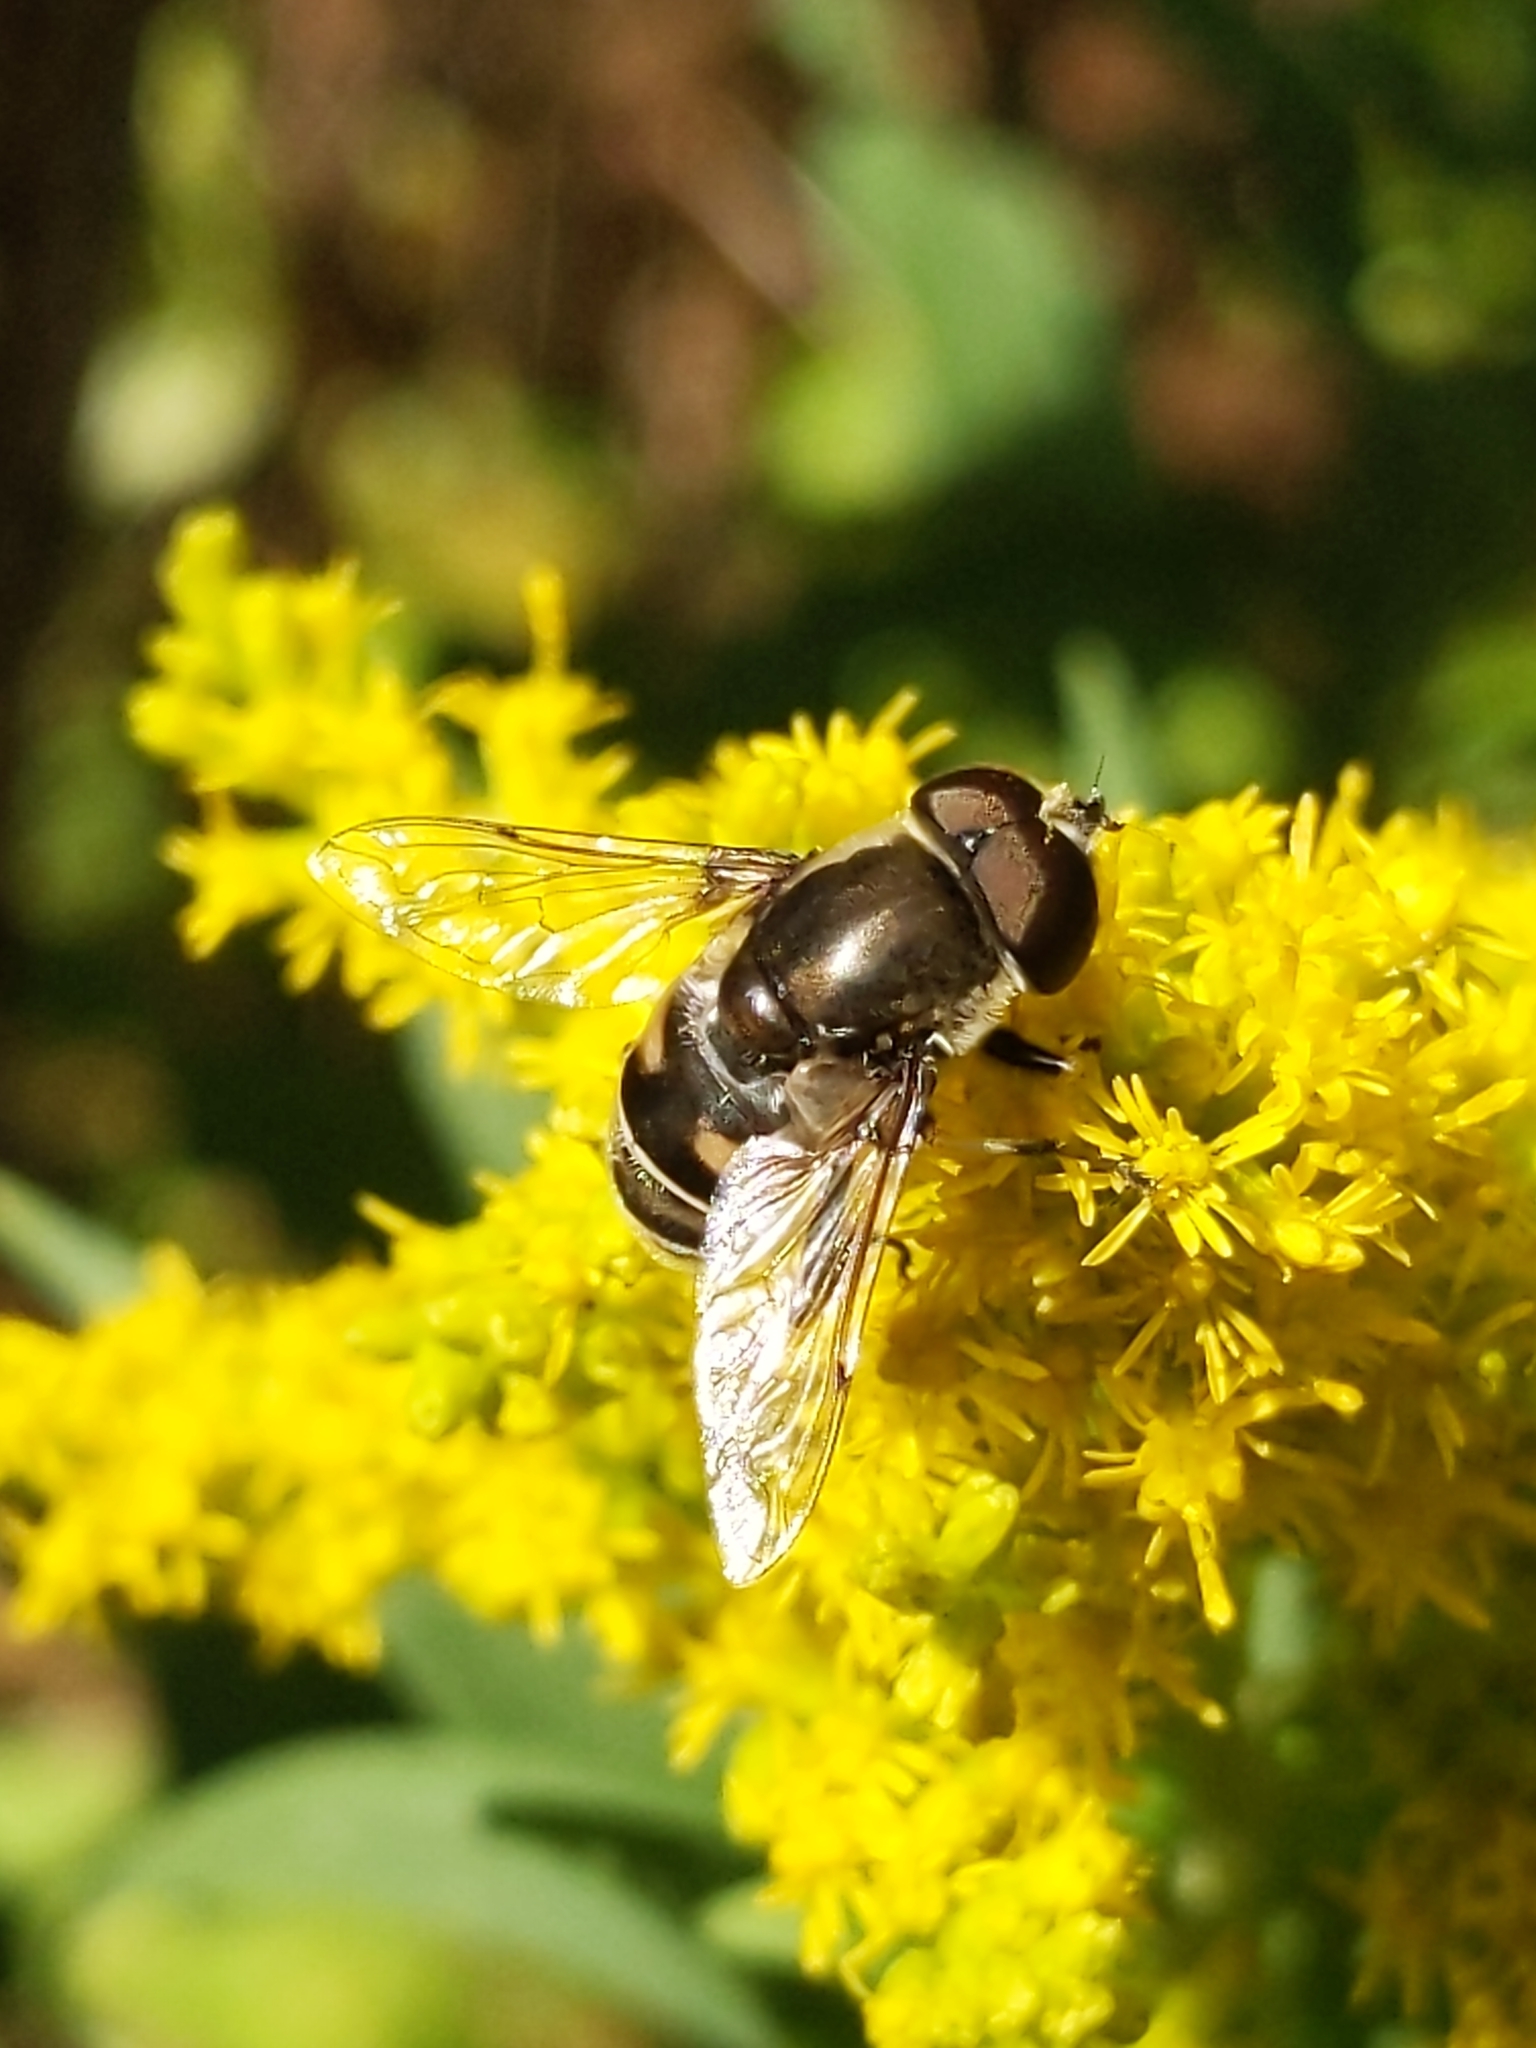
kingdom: Animalia
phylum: Arthropoda
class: Insecta
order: Diptera
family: Syrphidae
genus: Eristalis
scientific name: Eristalis dimidiata
